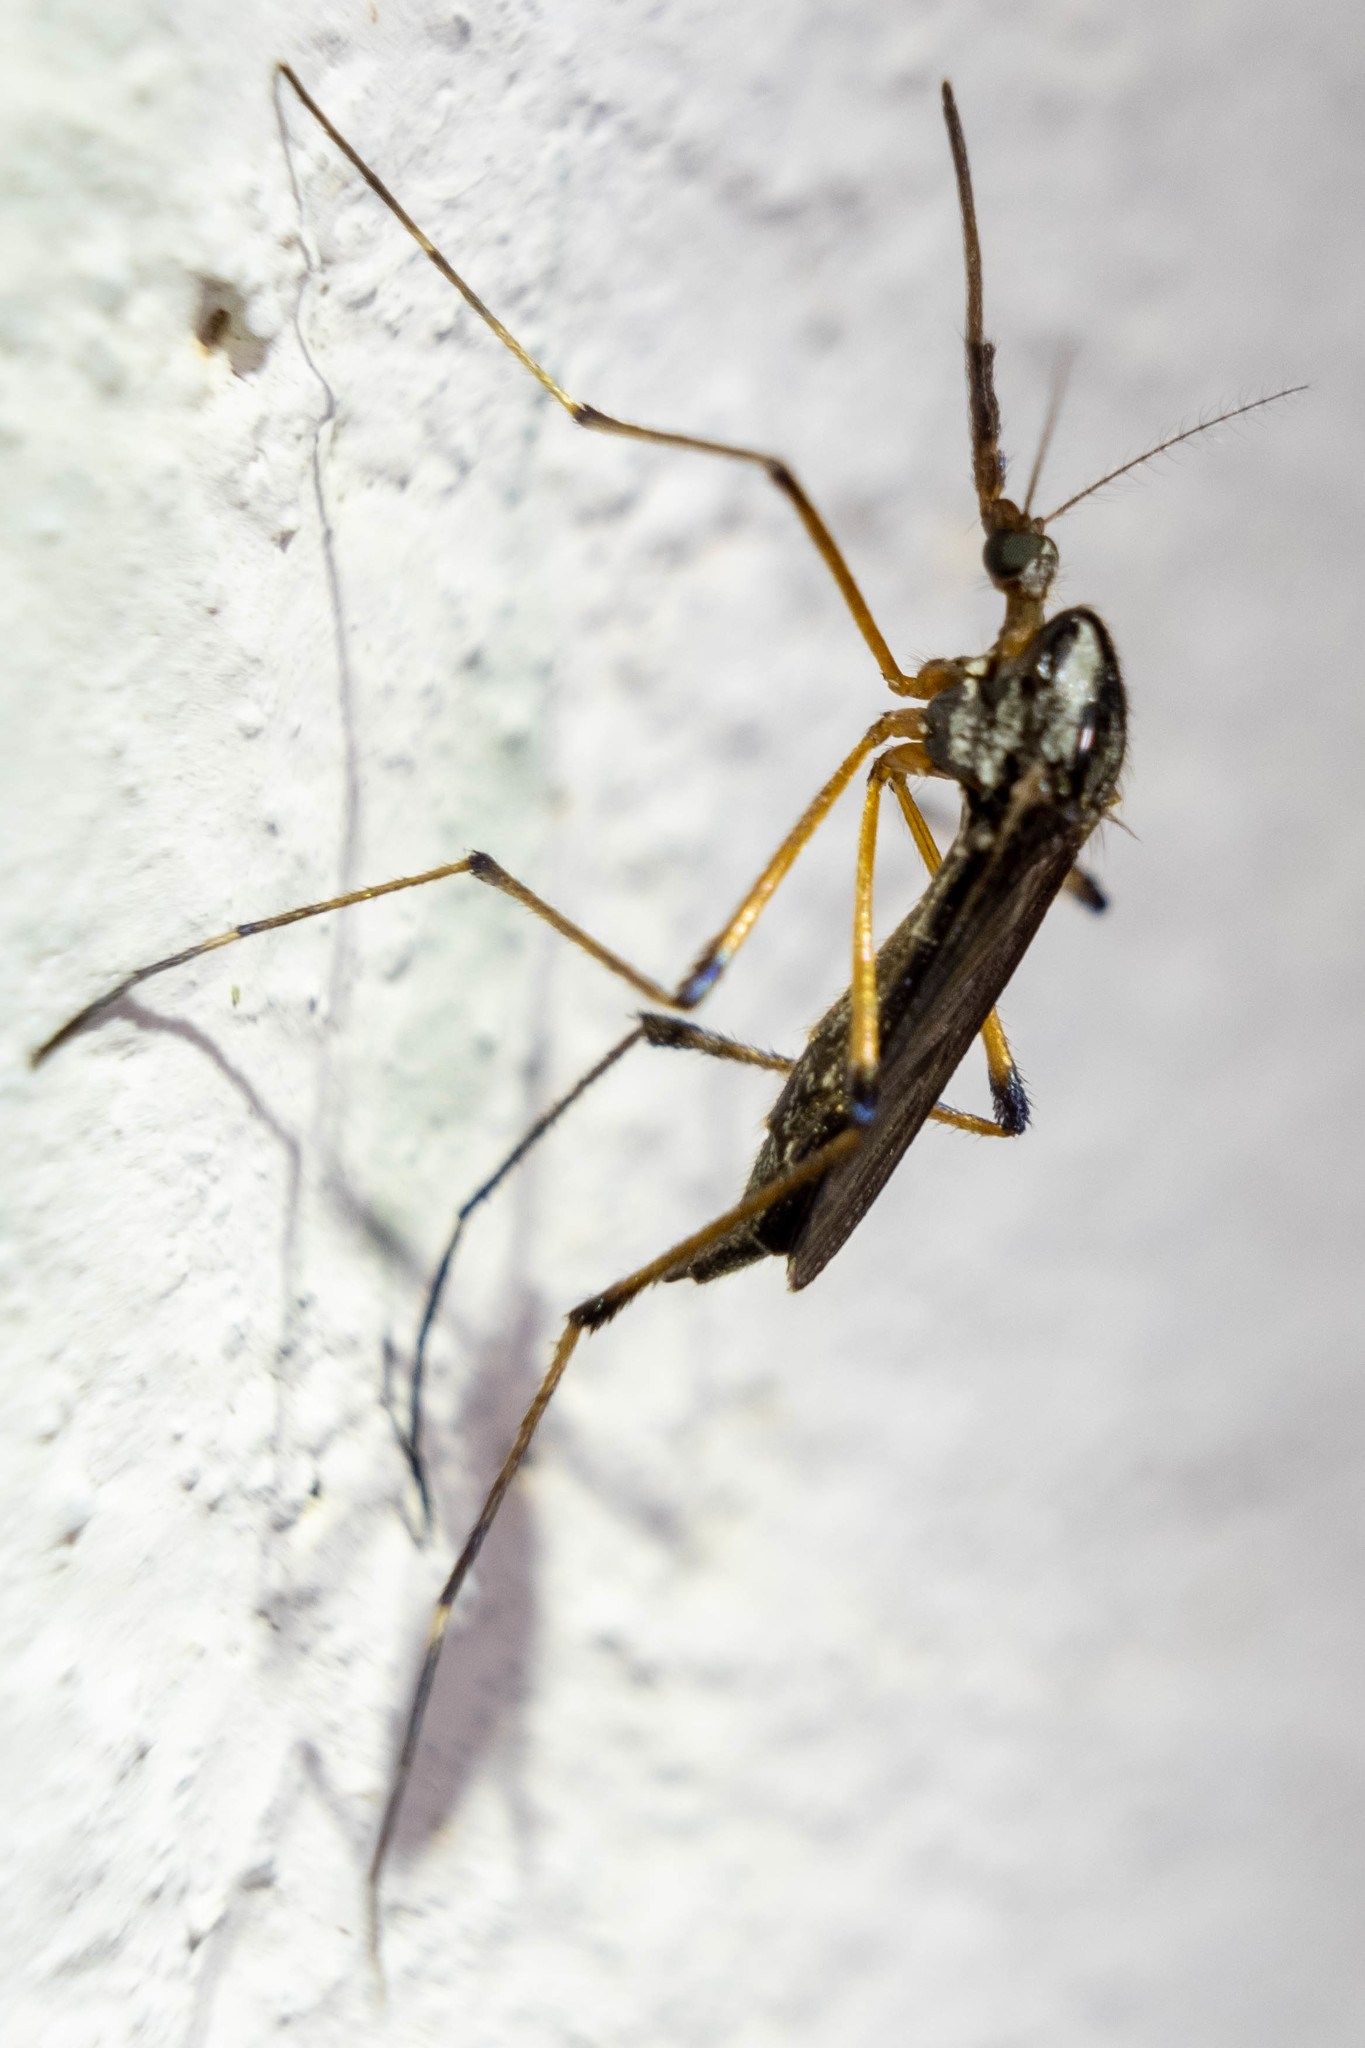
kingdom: Animalia
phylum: Arthropoda
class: Insecta
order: Diptera
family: Culicidae
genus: Psorophora
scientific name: Psorophora howardii
